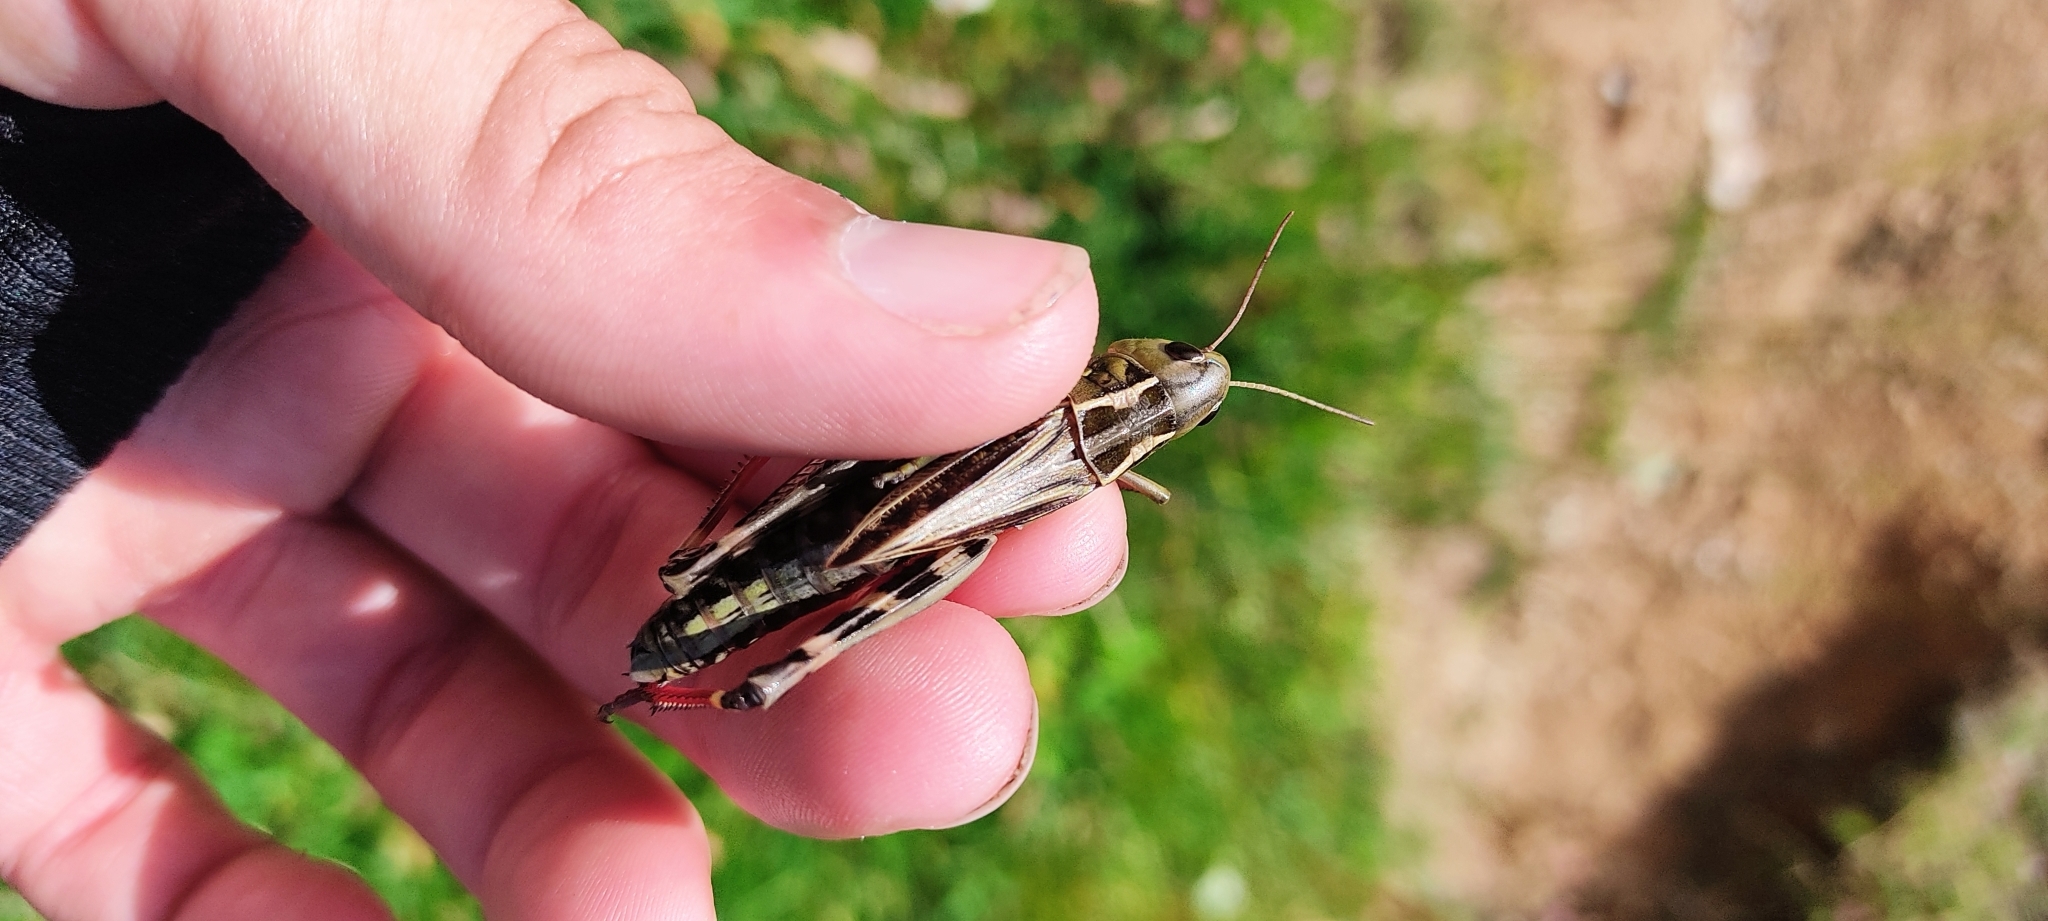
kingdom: Animalia
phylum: Arthropoda
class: Insecta
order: Orthoptera
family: Acrididae
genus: Arcyptera
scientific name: Arcyptera fusca
